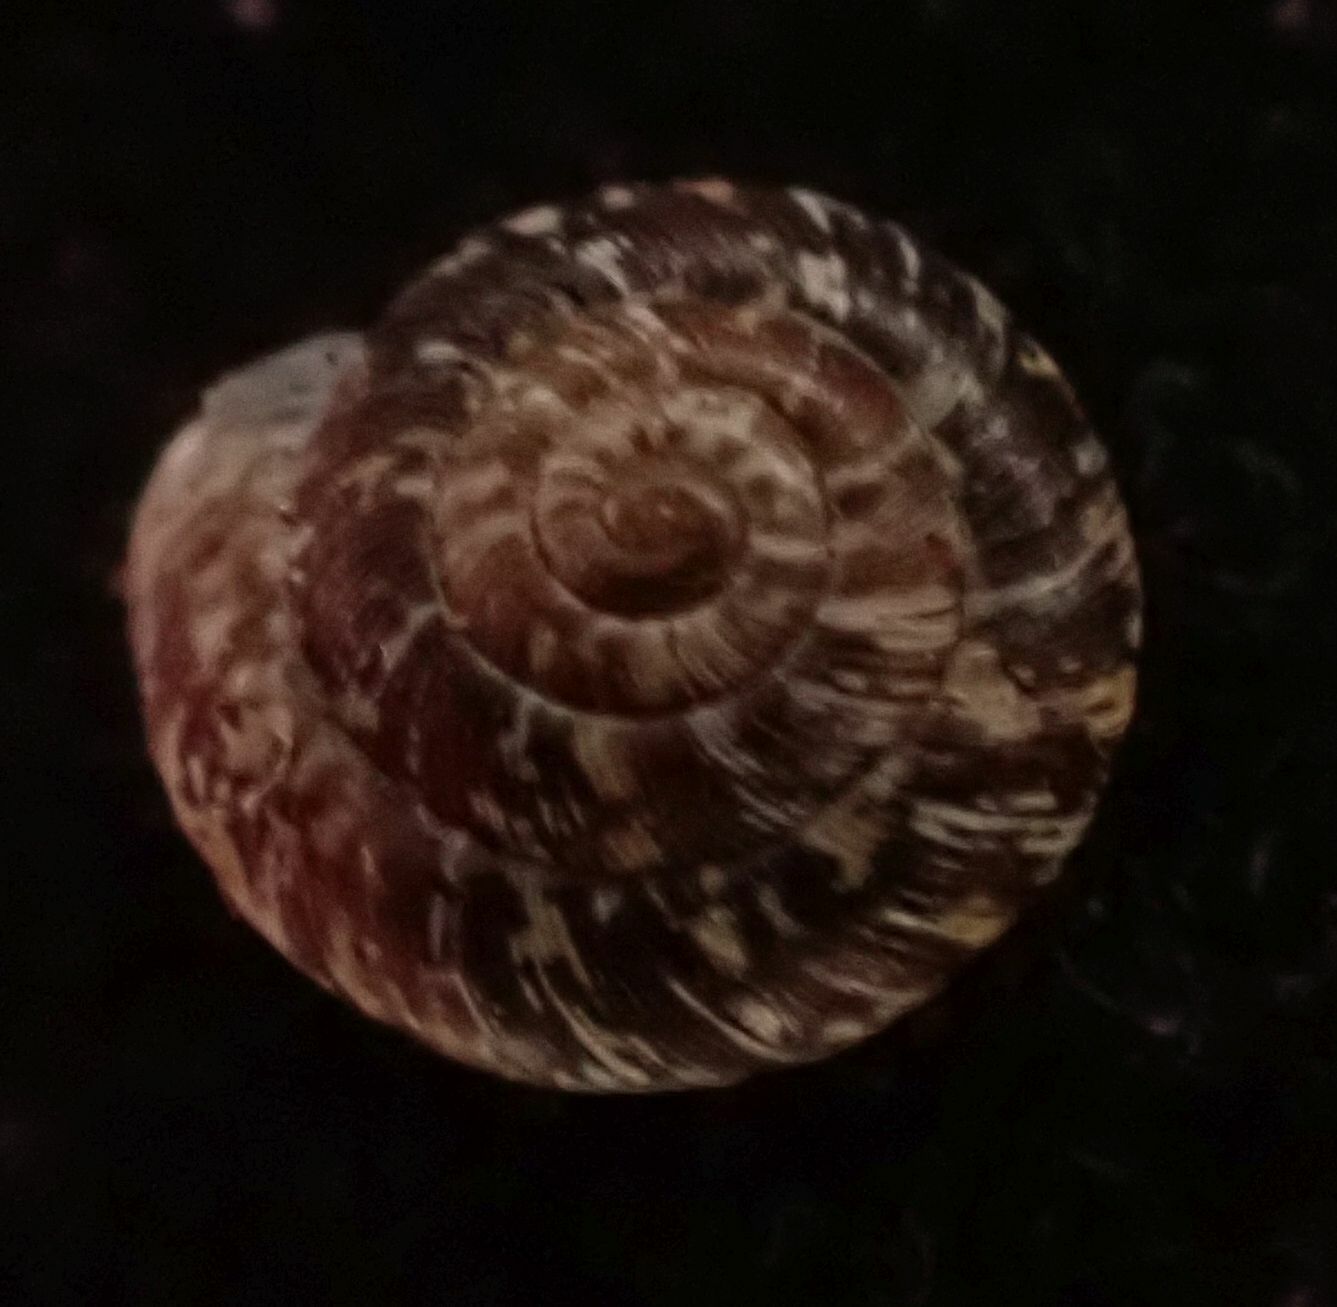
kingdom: Animalia
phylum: Mollusca
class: Gastropoda
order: Stylommatophora
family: Geomitridae
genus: Xeroplexa
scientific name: Xeroplexa intersecta
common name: Wrinkled snail
